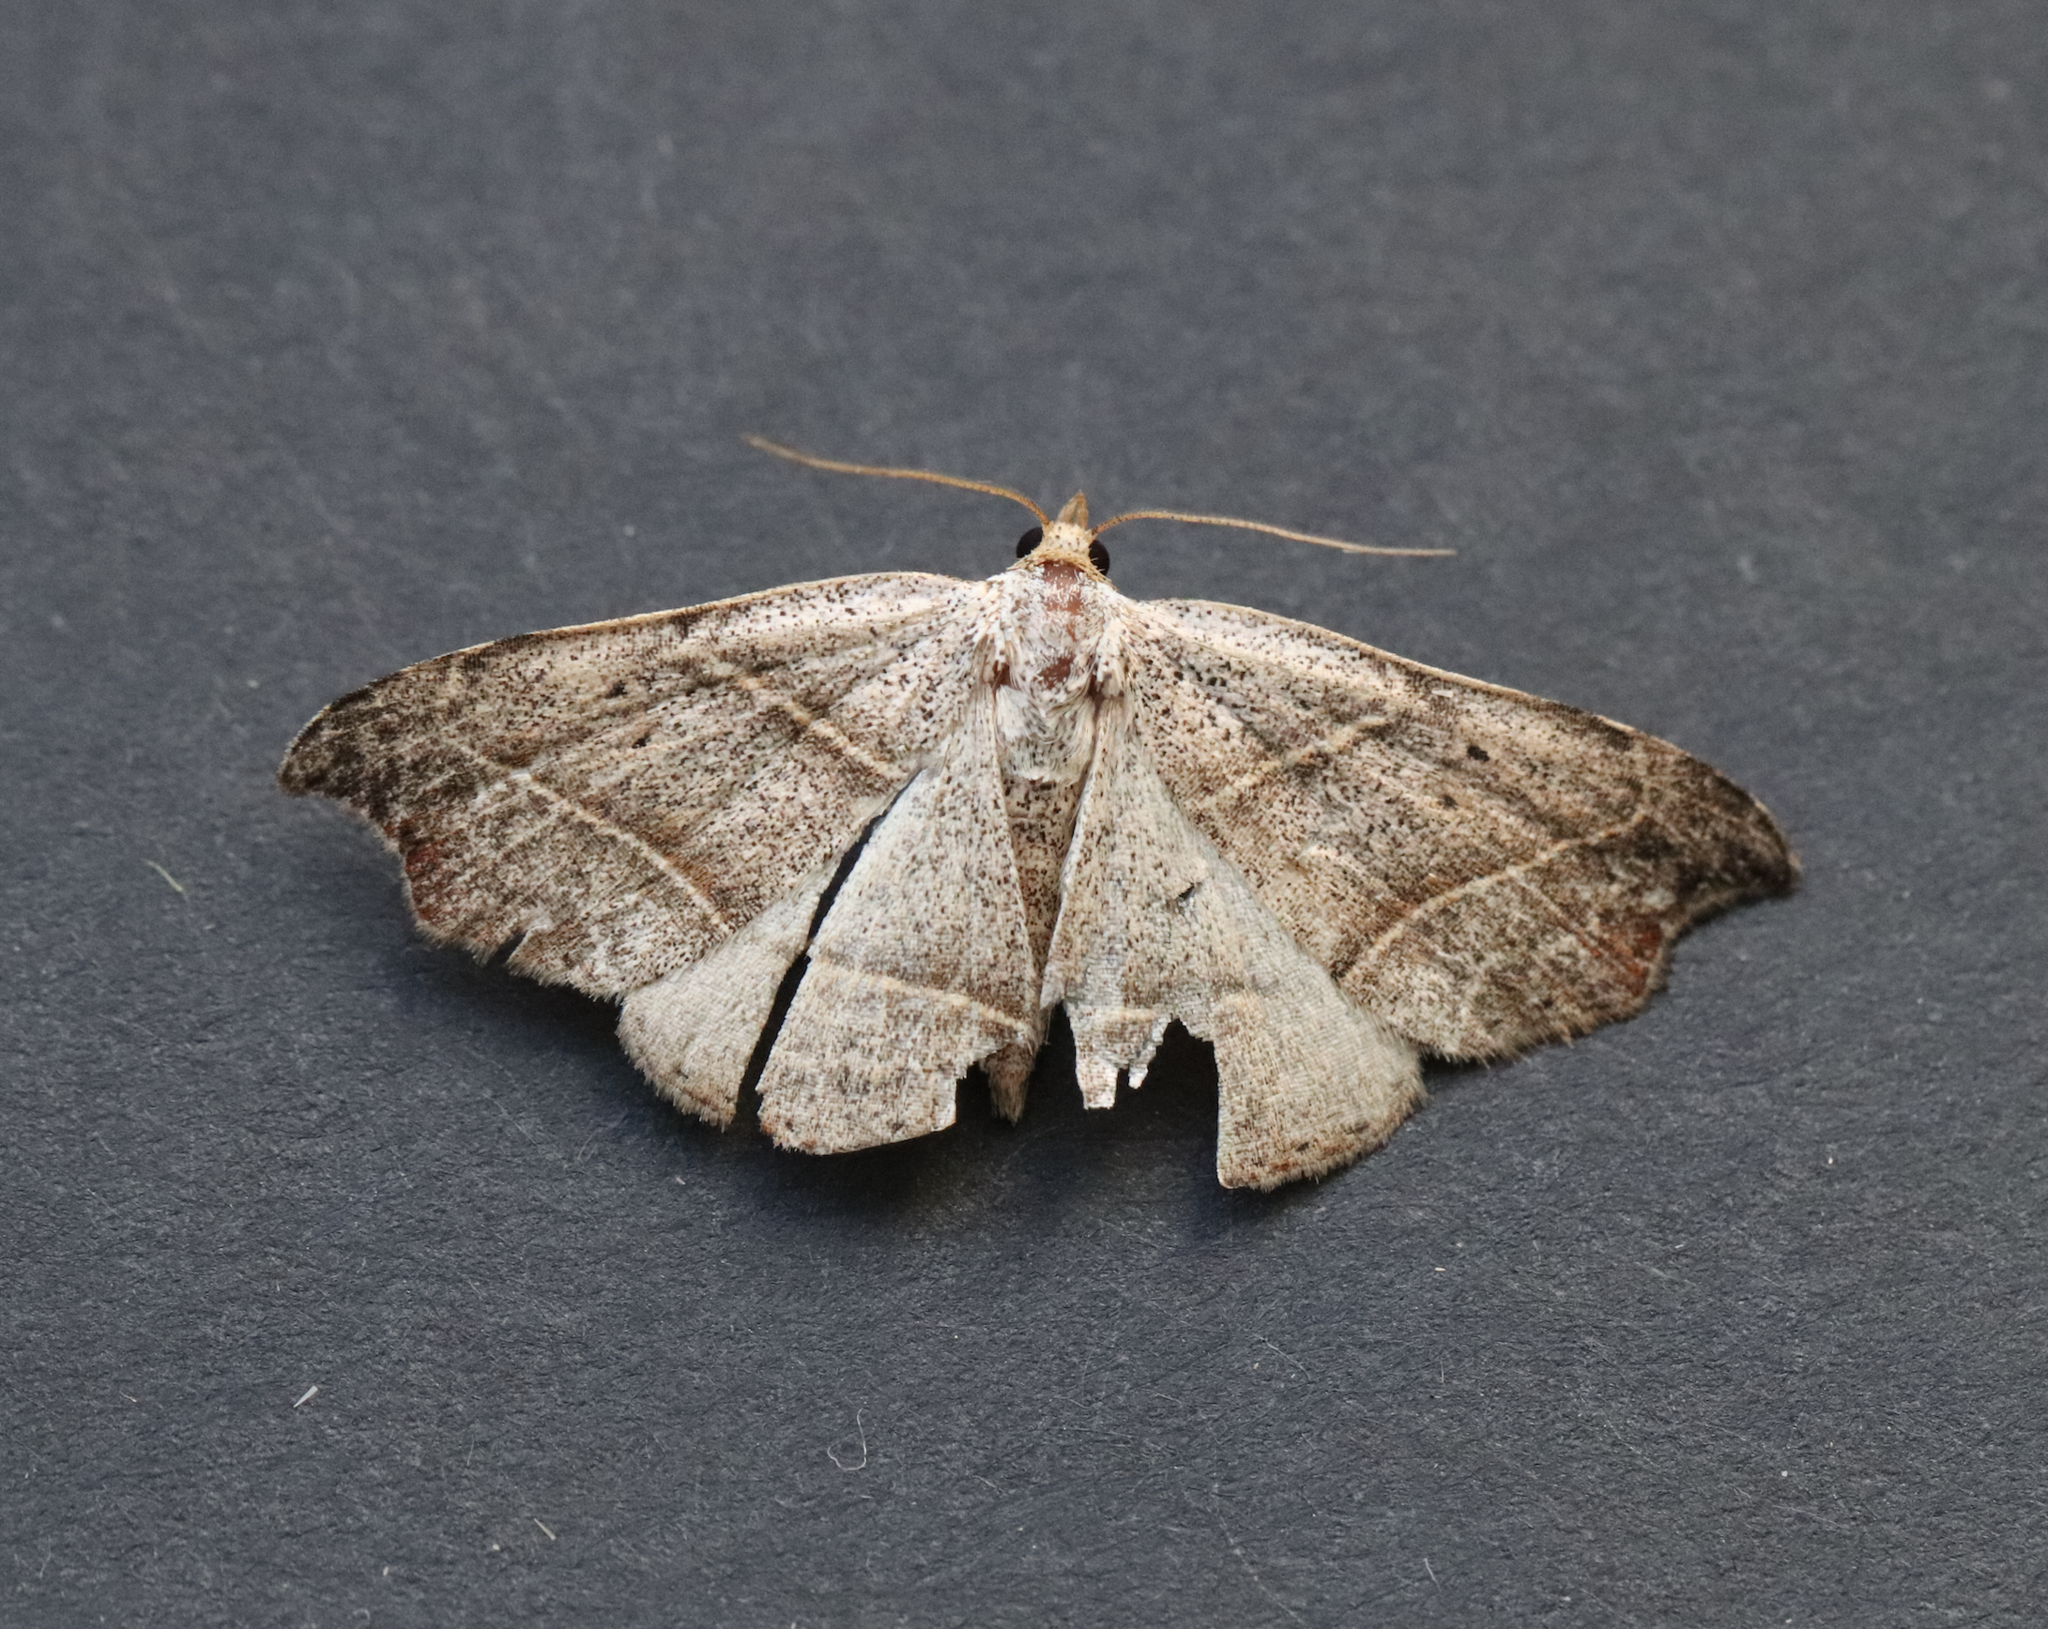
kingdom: Animalia
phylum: Arthropoda
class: Insecta
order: Lepidoptera
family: Erebidae
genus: Laspeyria
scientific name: Laspeyria flexula
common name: Beautiful hook-tip
